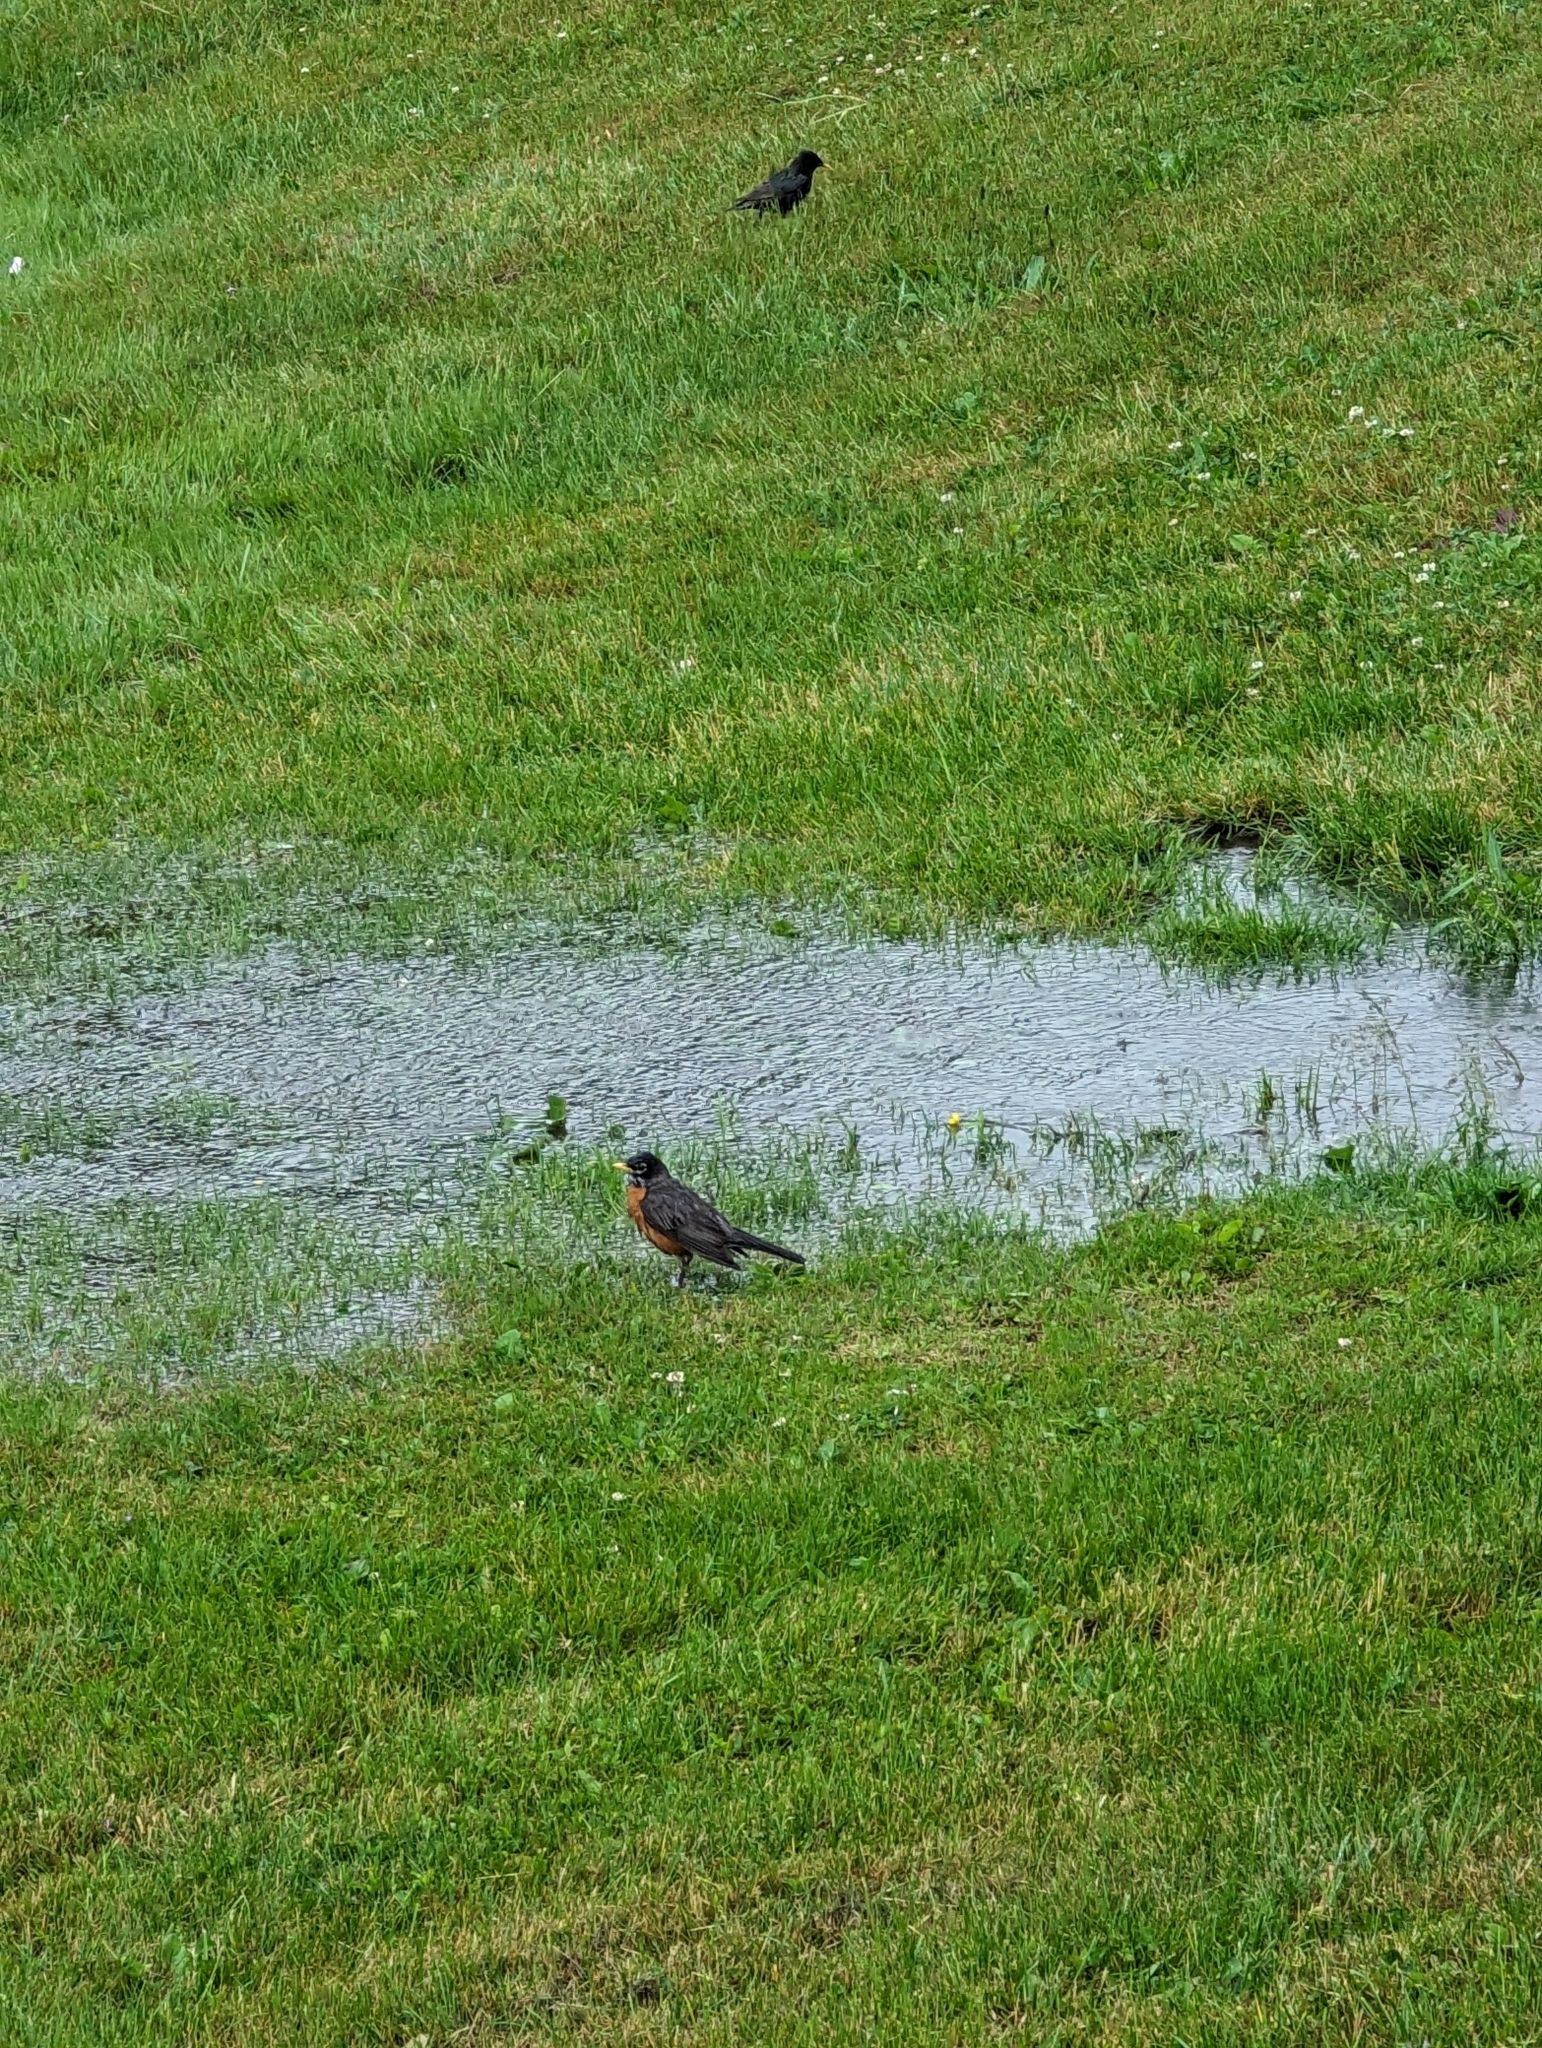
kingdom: Animalia
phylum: Chordata
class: Aves
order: Passeriformes
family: Turdidae
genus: Turdus
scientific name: Turdus migratorius
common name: American robin
